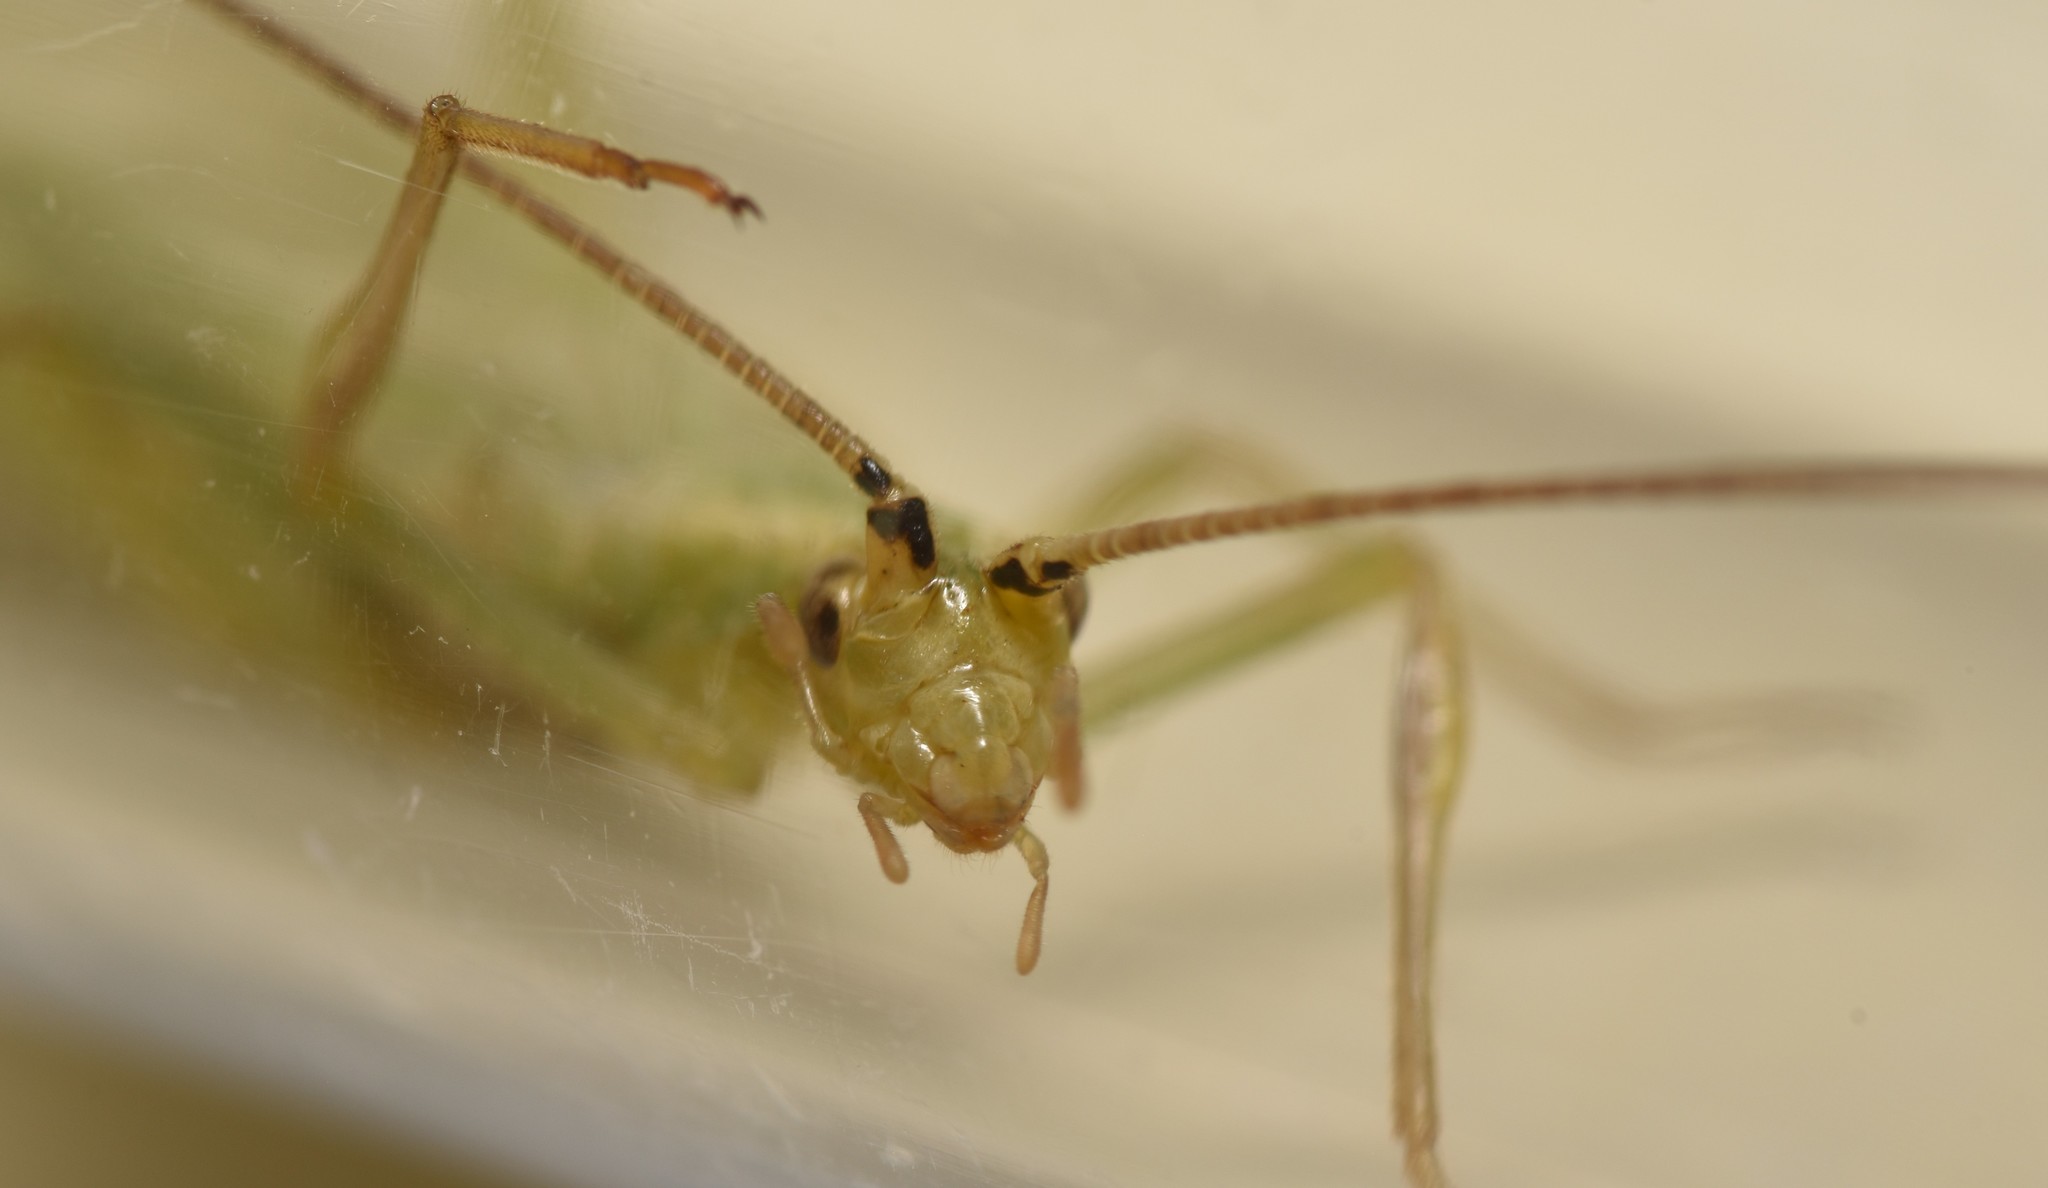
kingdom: Animalia
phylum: Arthropoda
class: Insecta
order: Orthoptera
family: Gryllidae
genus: Oecanthus
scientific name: Oecanthus argentinus
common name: Prairie tree cricket
